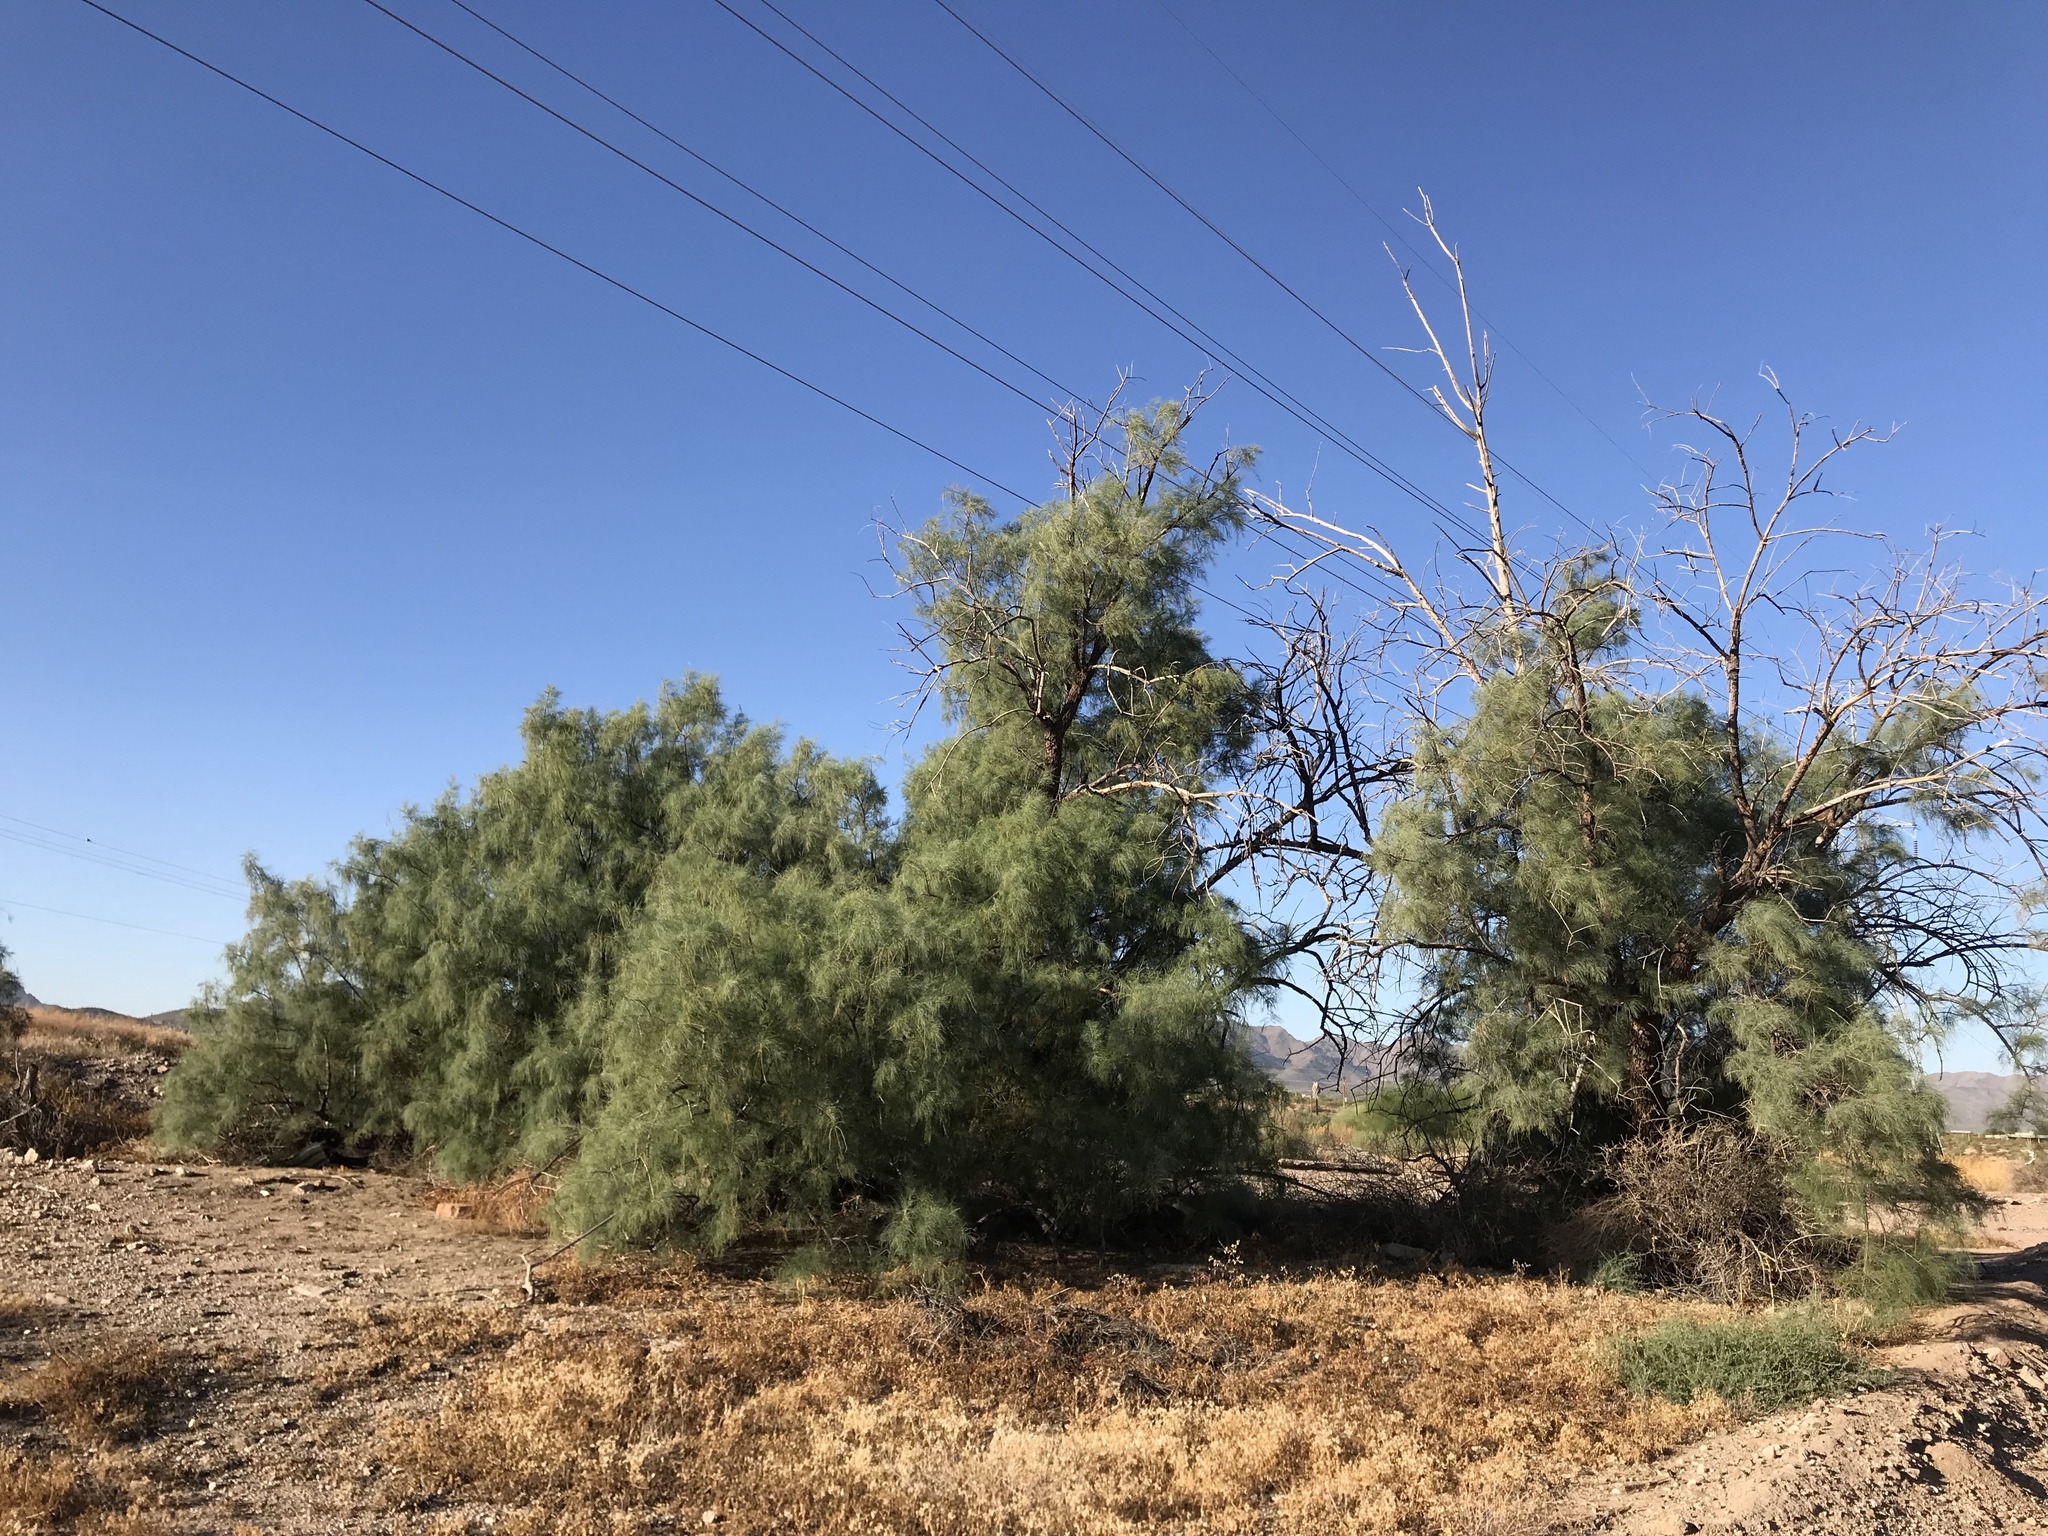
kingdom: Plantae
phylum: Tracheophyta
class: Magnoliopsida
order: Caryophyllales
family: Tamaricaceae
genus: Tamarix
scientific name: Tamarix aphylla
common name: Athel tamarisk
